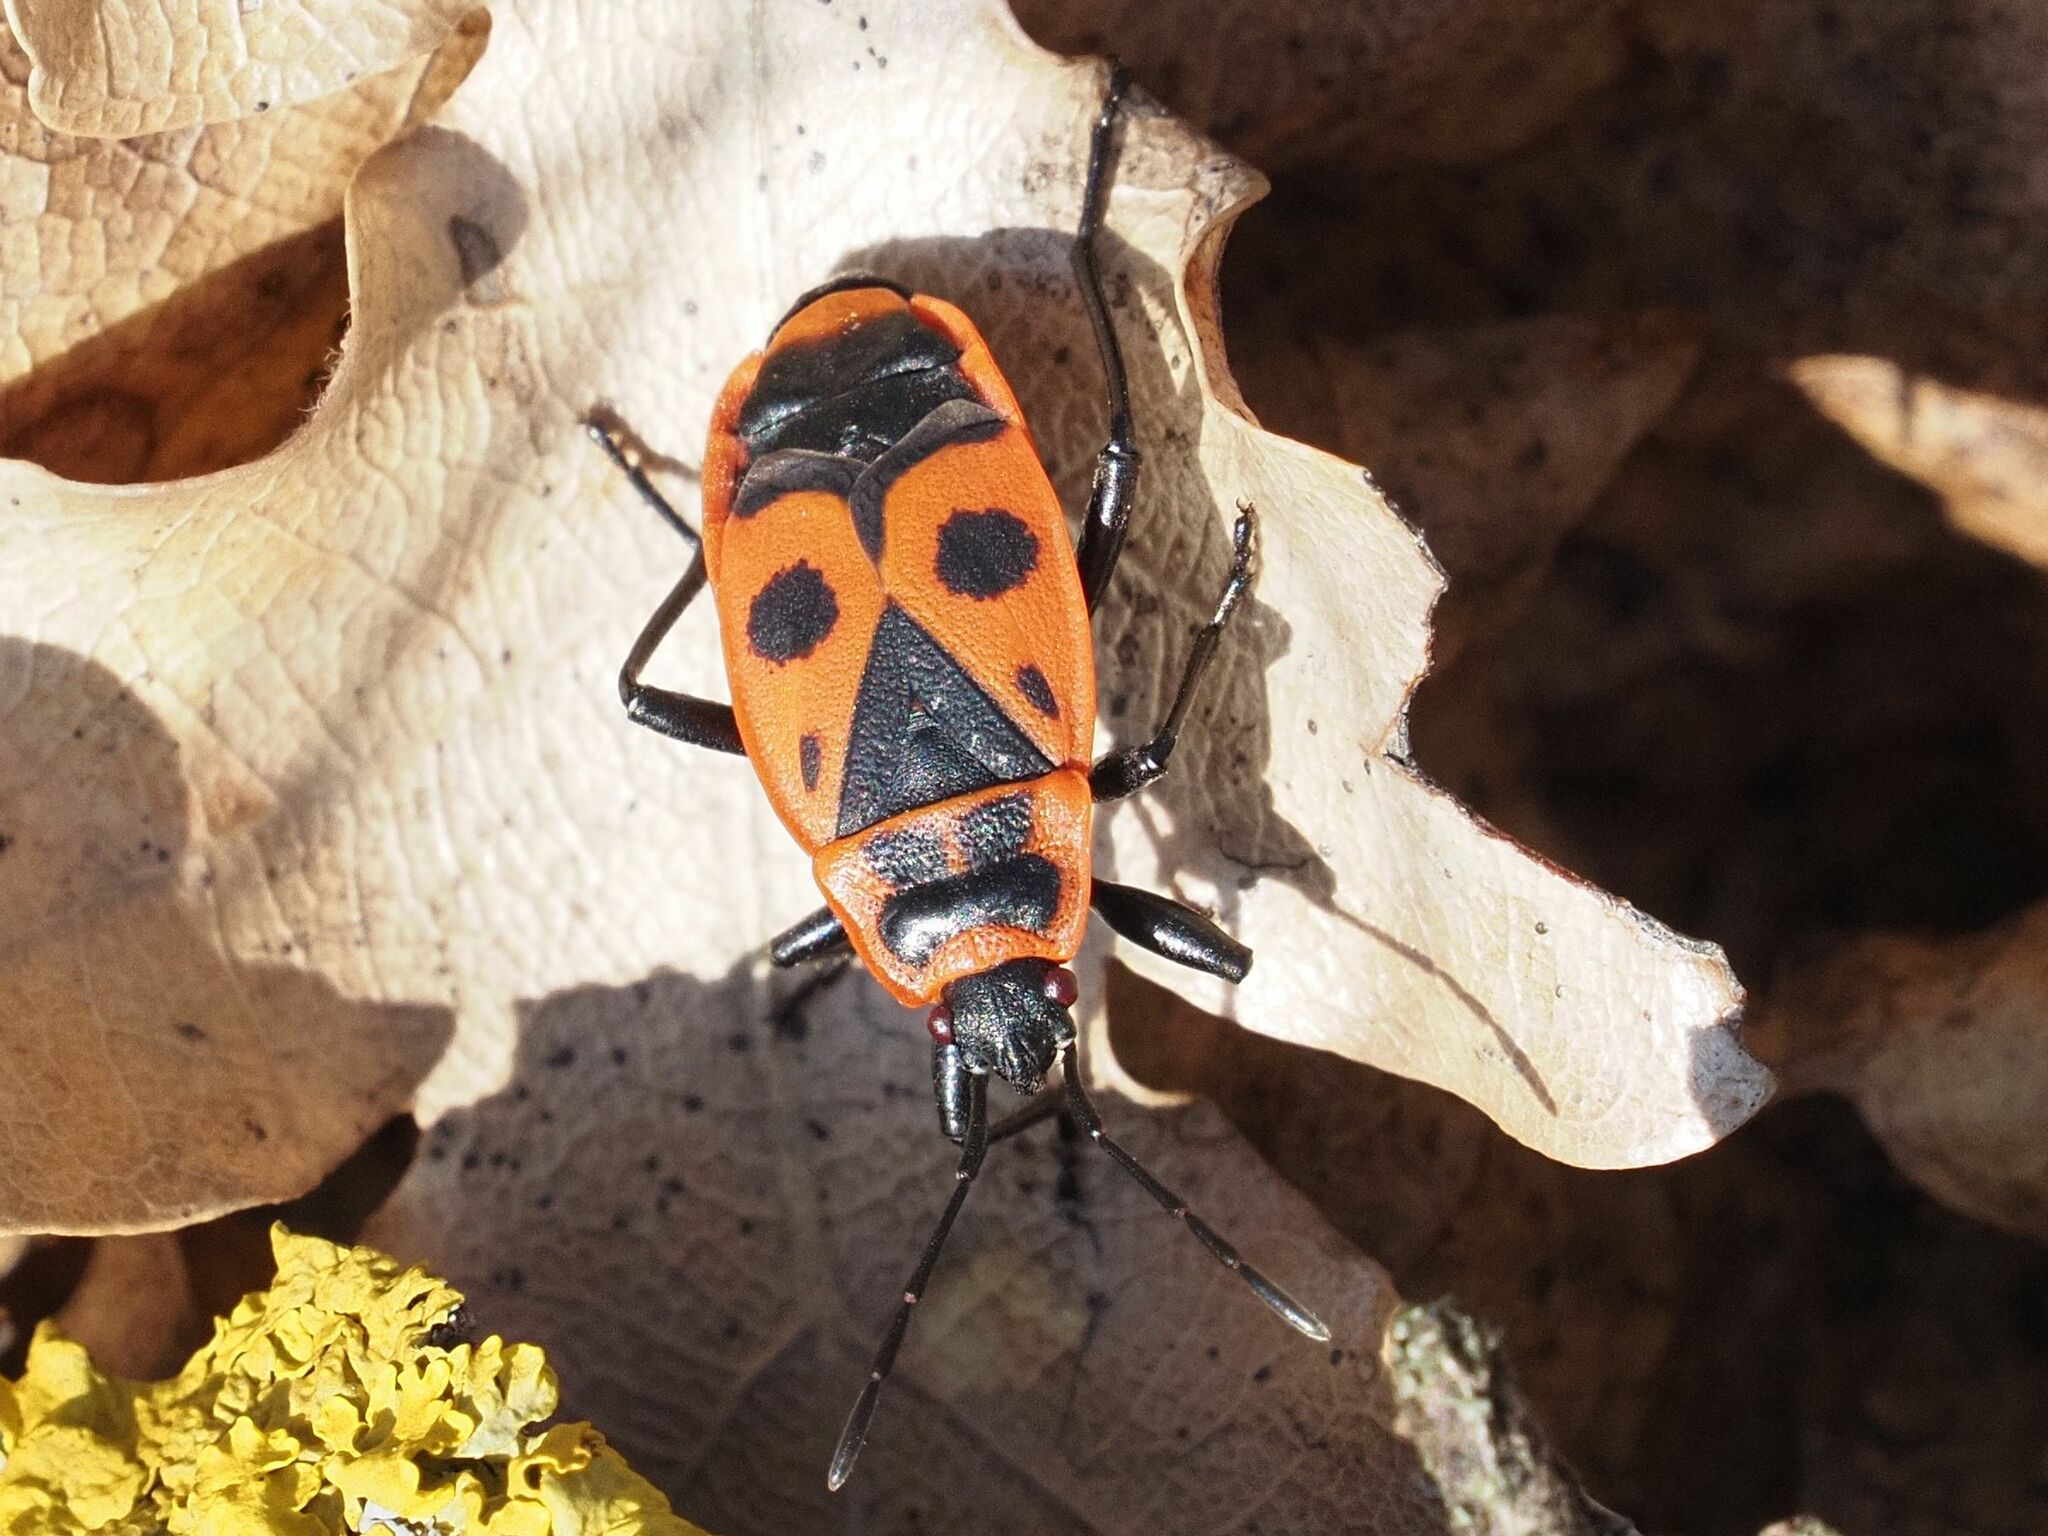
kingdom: Animalia
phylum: Arthropoda
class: Insecta
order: Hemiptera
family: Pyrrhocoridae
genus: Pyrrhocoris
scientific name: Pyrrhocoris apterus
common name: Firebug
